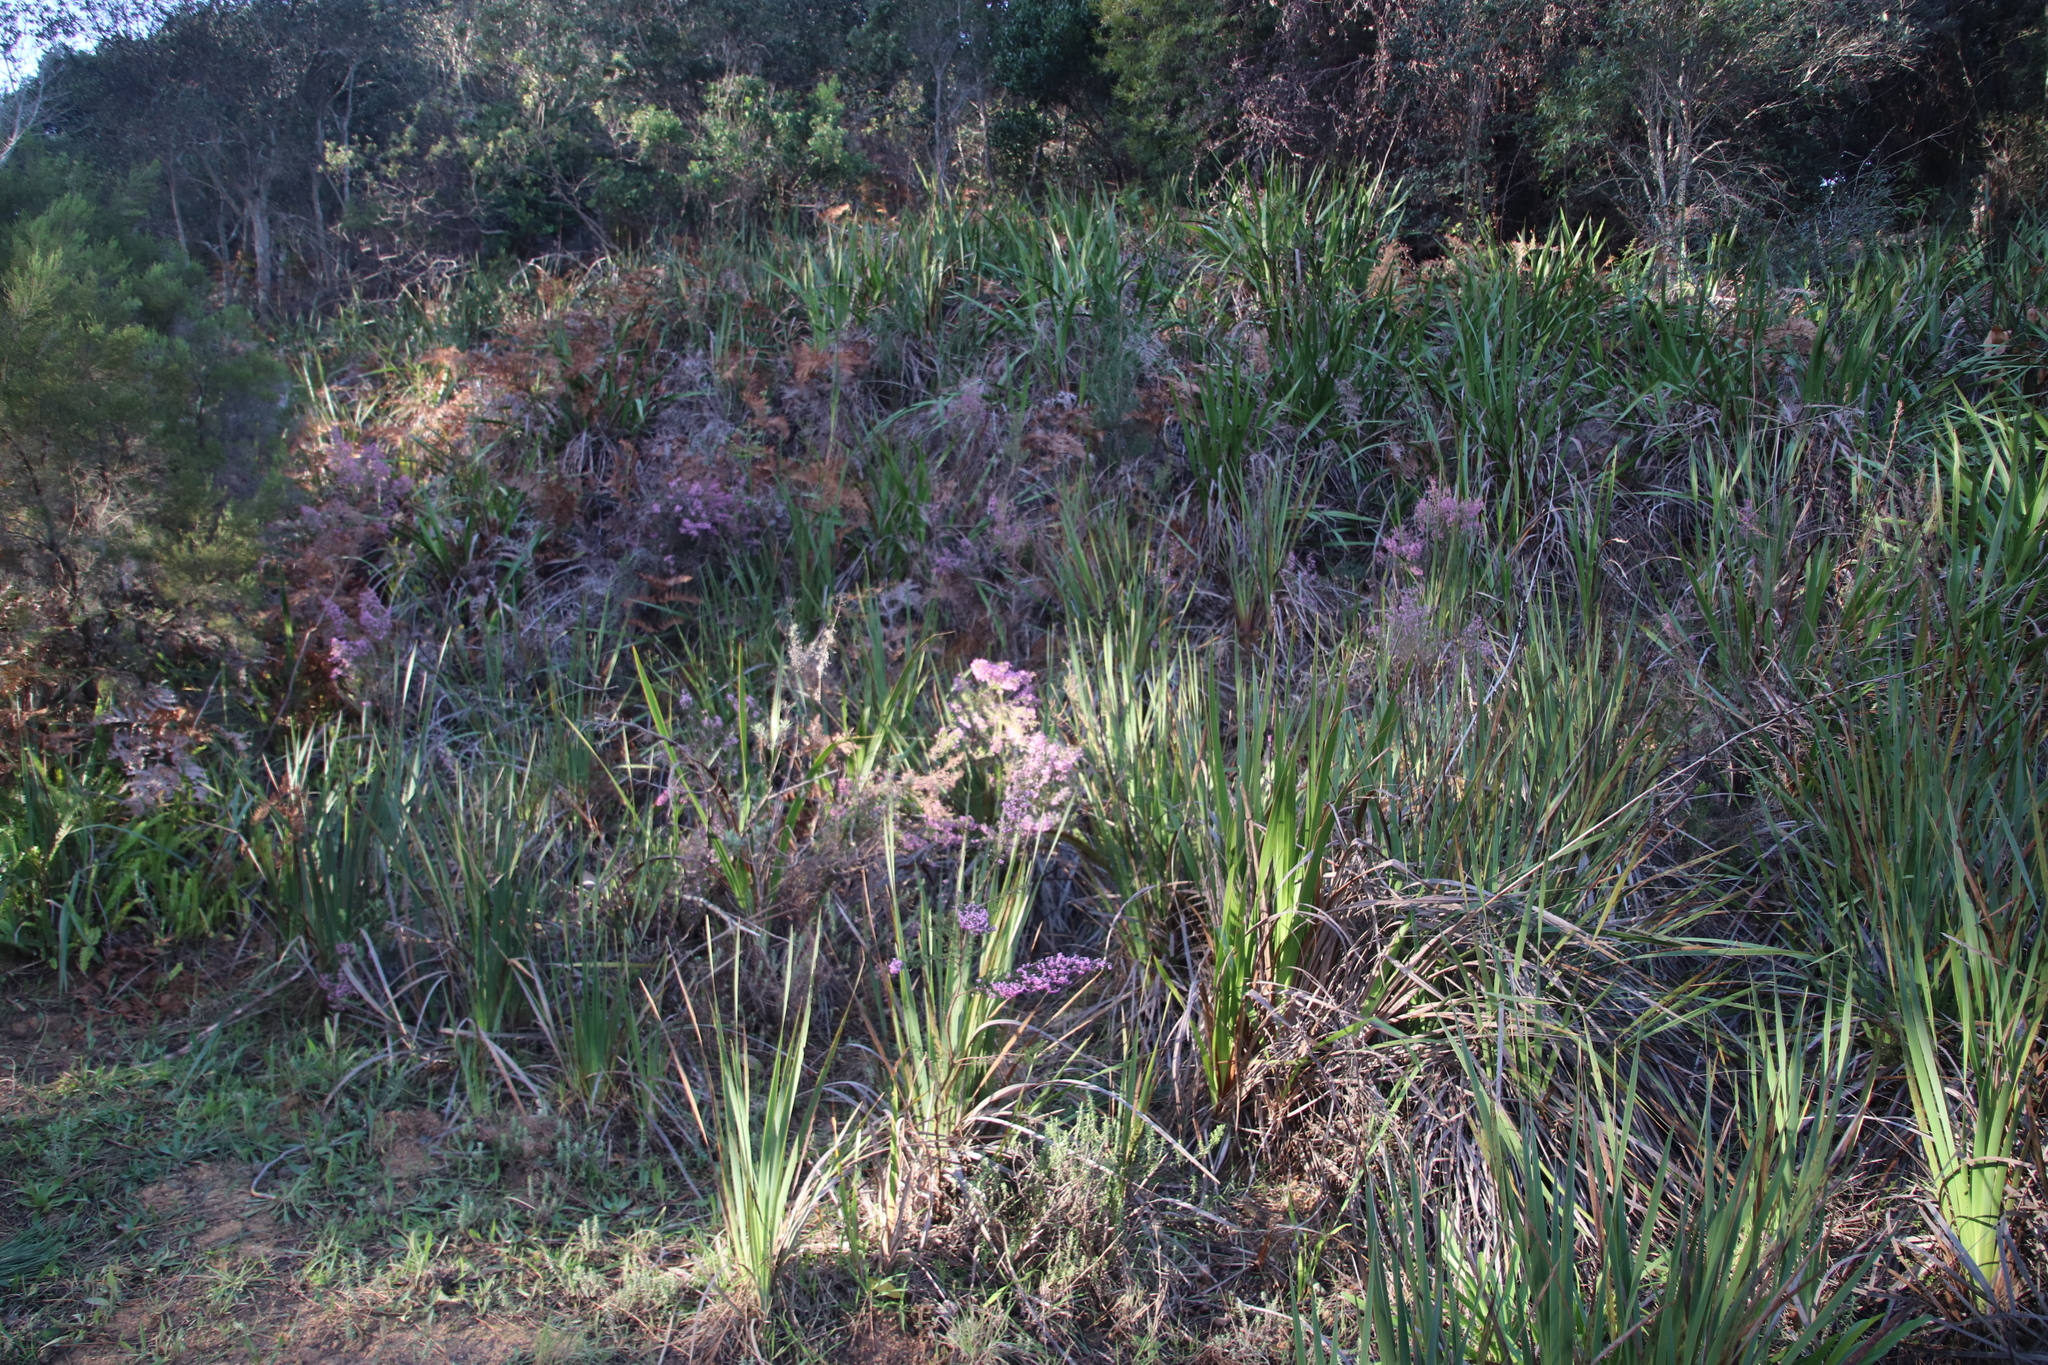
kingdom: Plantae
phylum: Tracheophyta
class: Magnoliopsida
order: Ericales
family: Ericaceae
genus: Erica
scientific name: Erica hirtiflora
